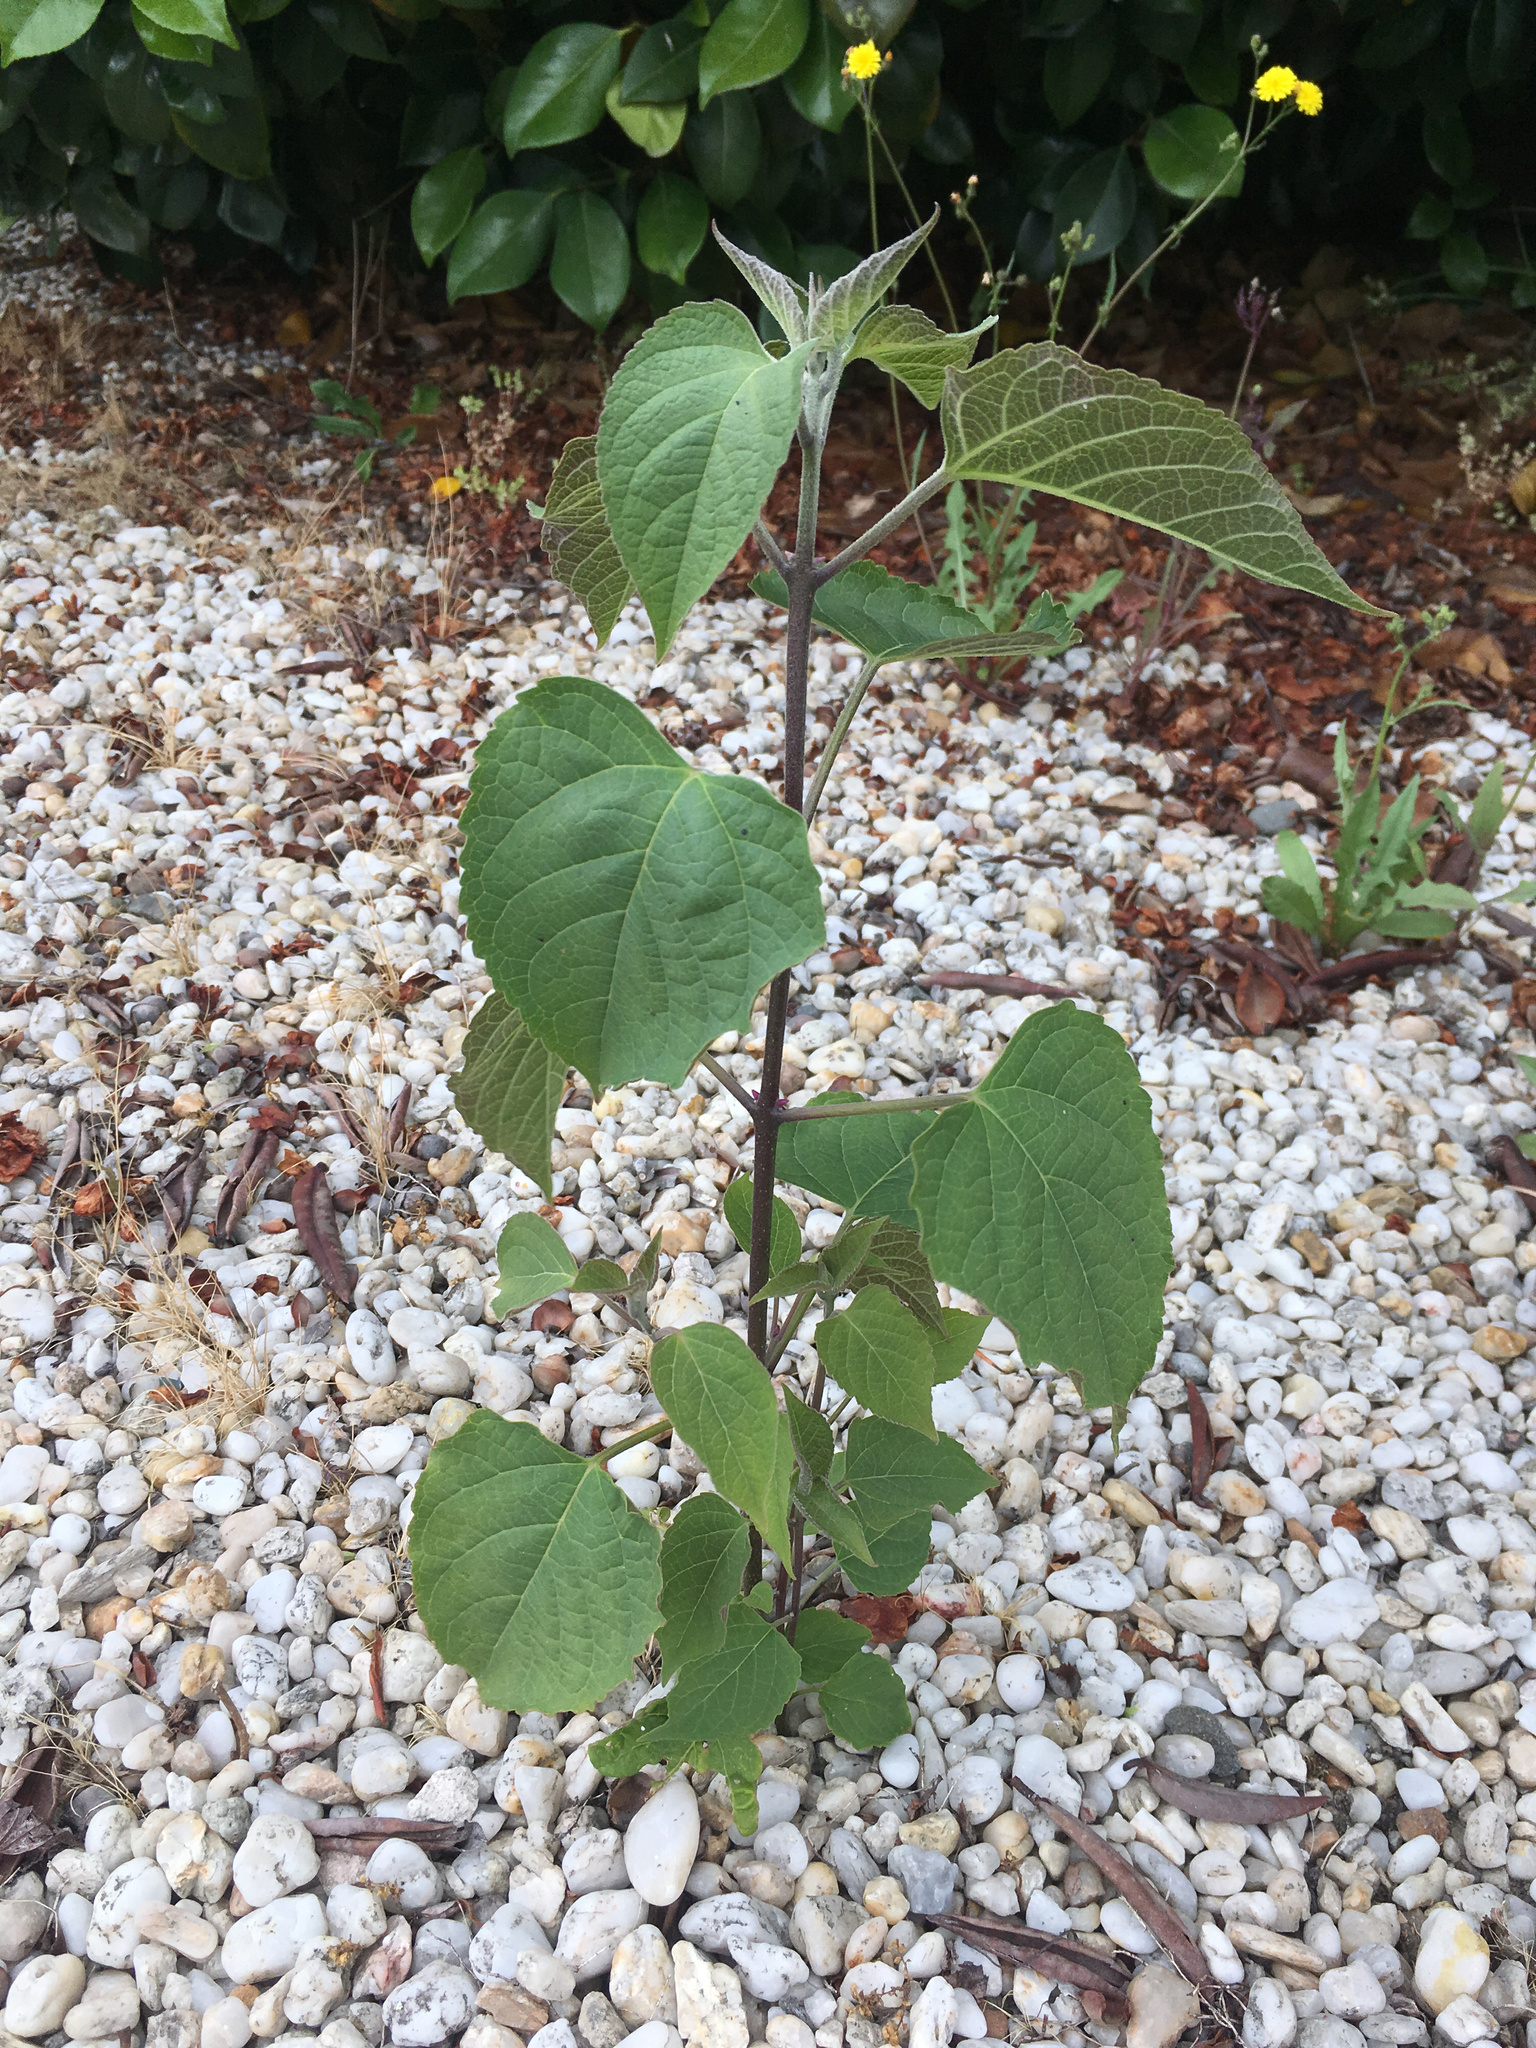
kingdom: Plantae
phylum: Tracheophyta
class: Magnoliopsida
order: Lamiales
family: Lamiaceae
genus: Clerodendrum
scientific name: Clerodendrum trichotomum
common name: Harlequin glorybower
